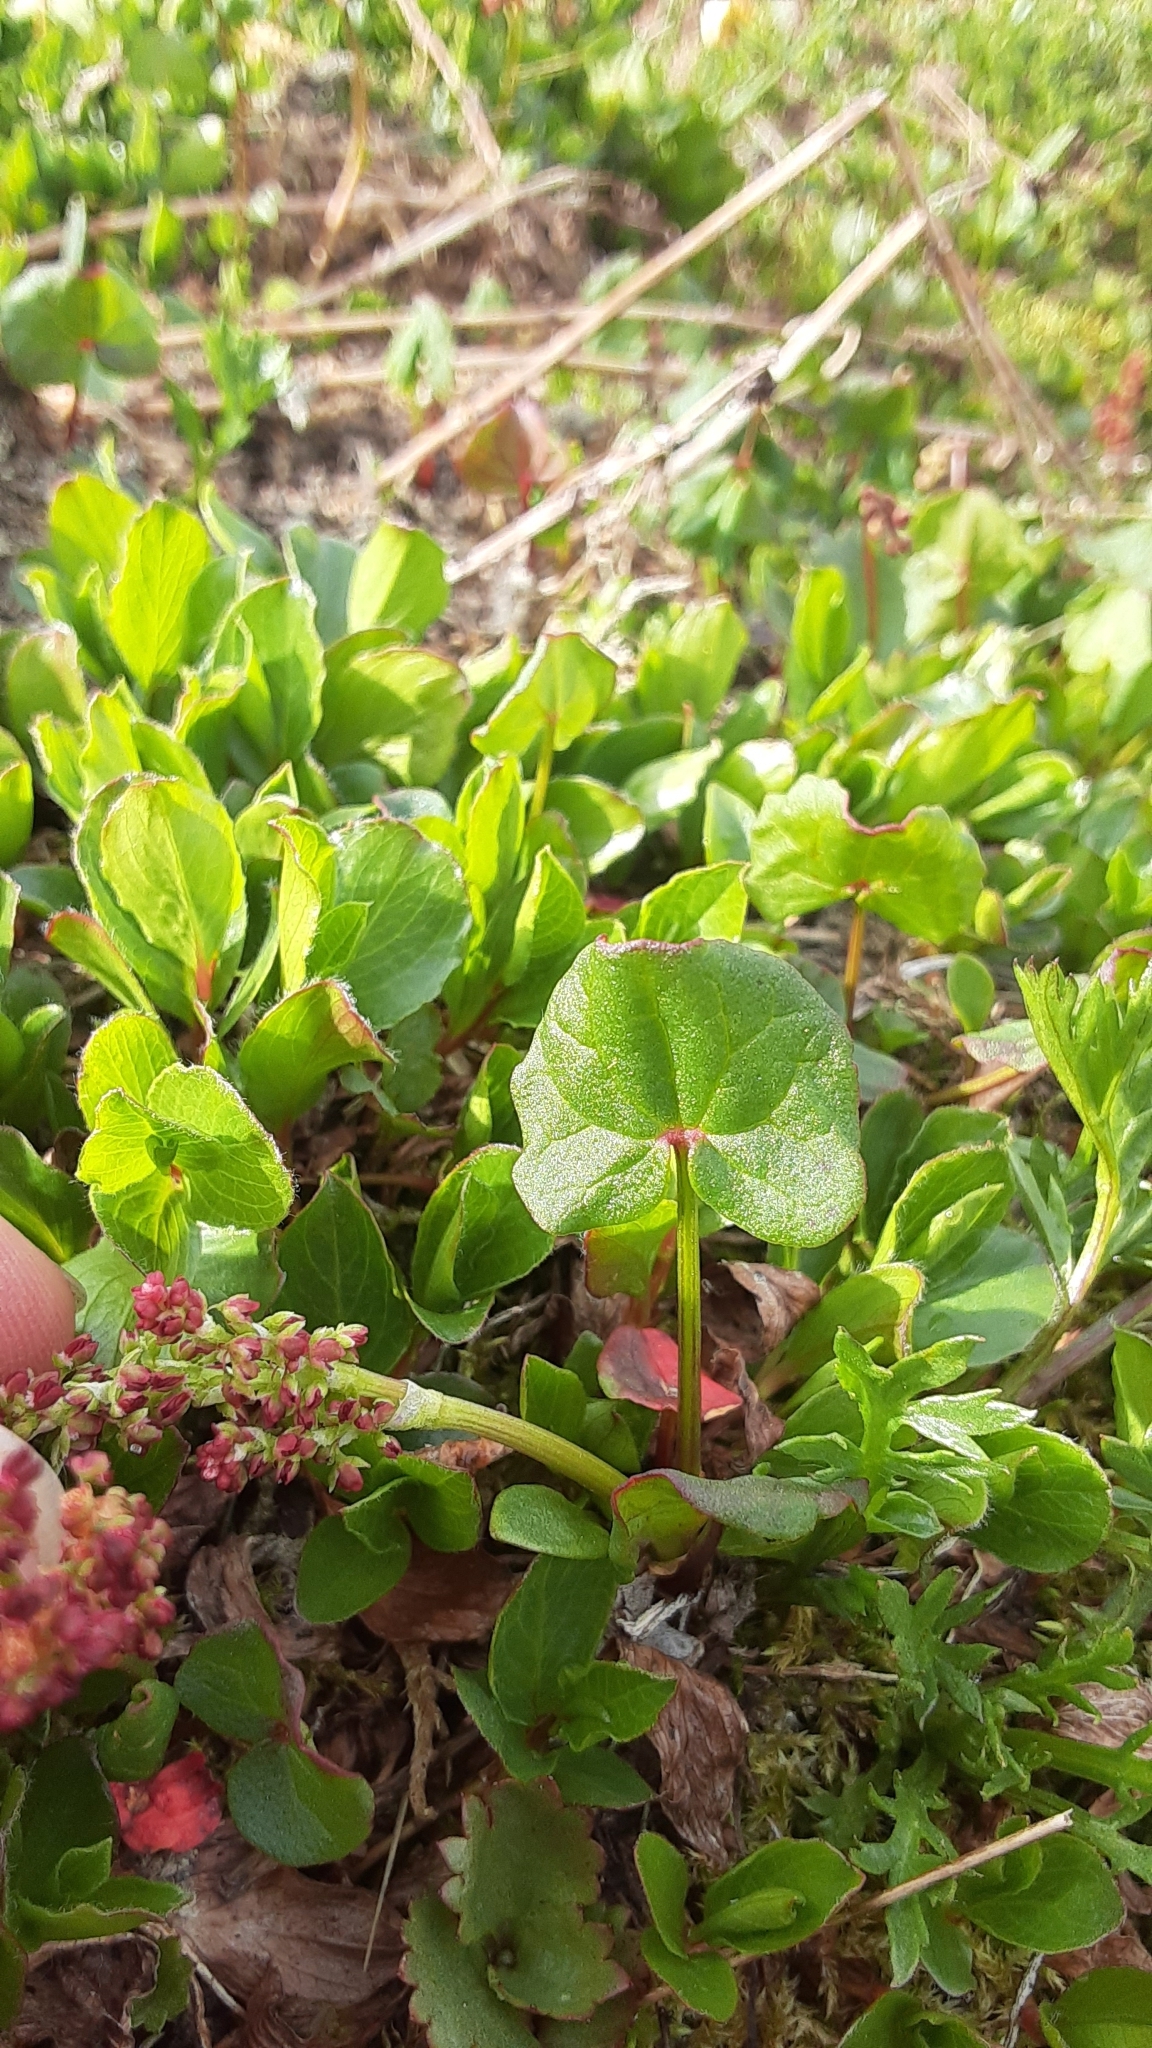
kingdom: Plantae
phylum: Tracheophyta
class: Magnoliopsida
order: Caryophyllales
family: Polygonaceae
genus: Oxyria
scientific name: Oxyria digyna
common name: Alpine mountain-sorrel
